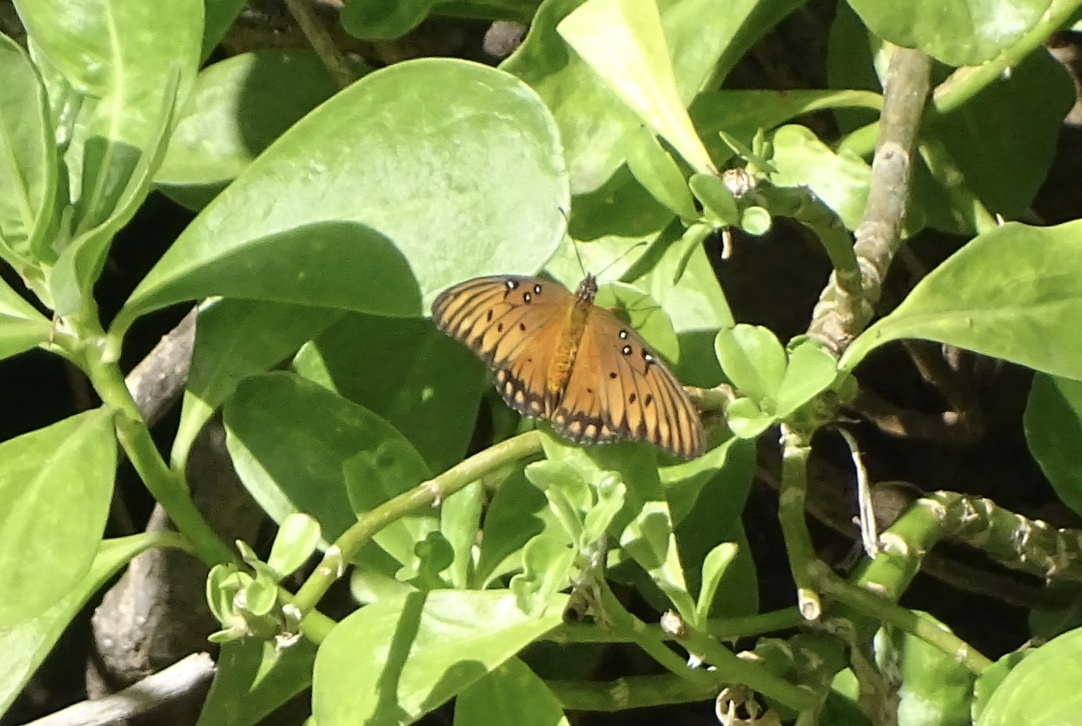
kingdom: Animalia
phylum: Arthropoda
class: Insecta
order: Lepidoptera
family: Nymphalidae
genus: Dione
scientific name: Dione vanillae
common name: Gulf fritillary
